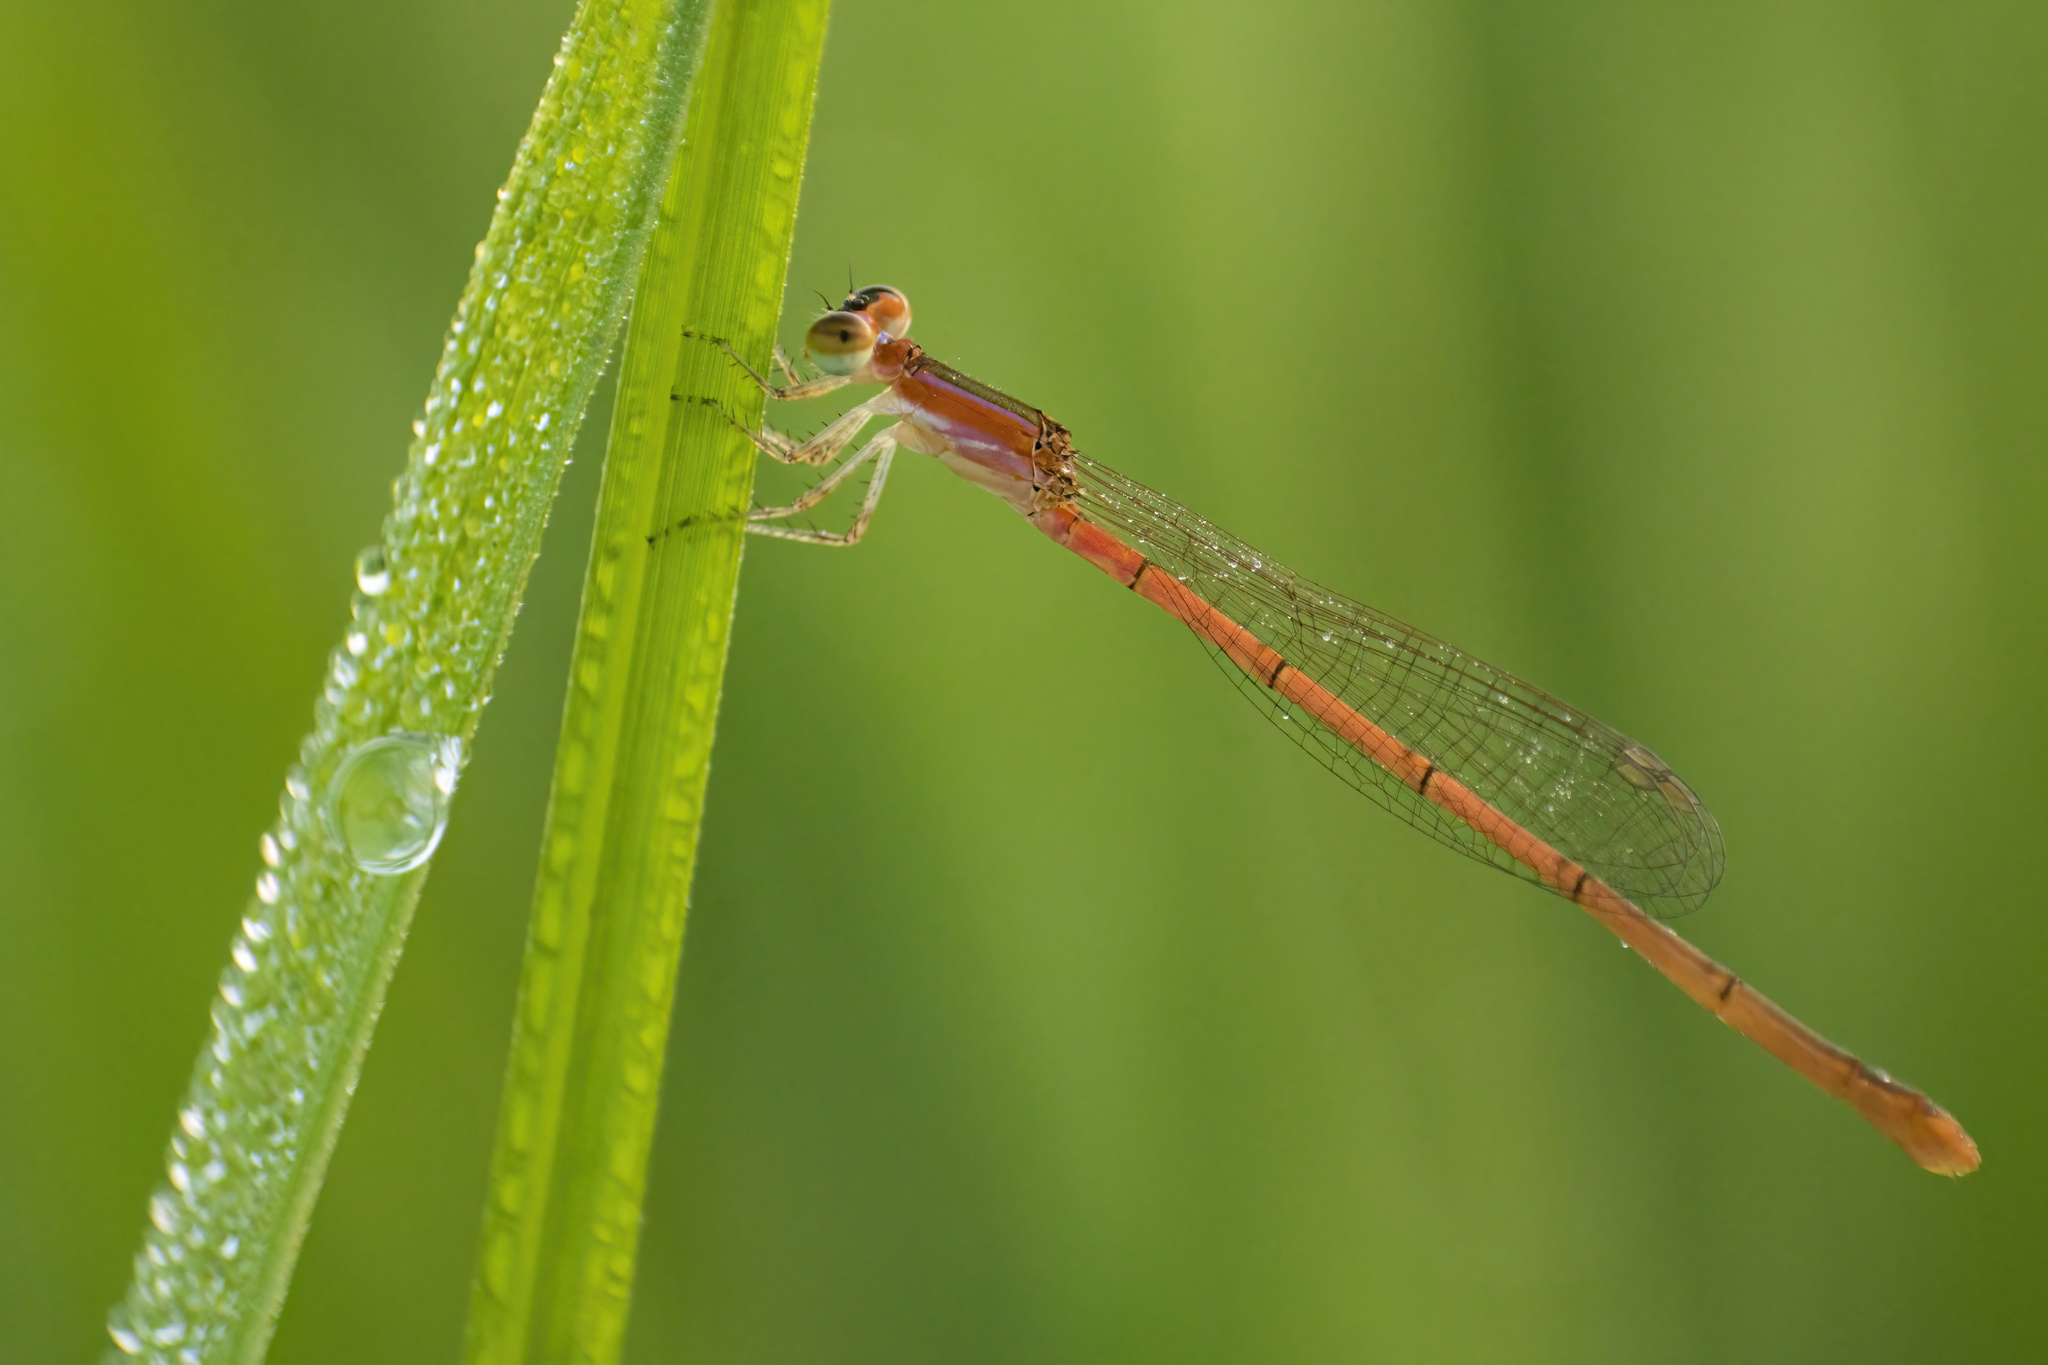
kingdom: Animalia
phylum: Arthropoda
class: Insecta
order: Odonata
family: Coenagrionidae
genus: Agriocnemis
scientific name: Agriocnemis pygmaea
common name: Pygmy wisp
